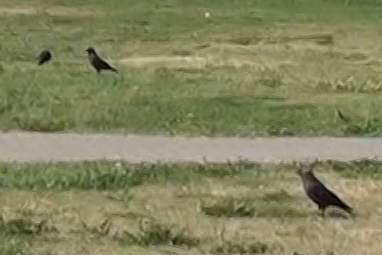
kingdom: Animalia
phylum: Chordata
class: Aves
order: Passeriformes
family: Corvidae
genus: Coloeus
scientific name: Coloeus monedula
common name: Western jackdaw
